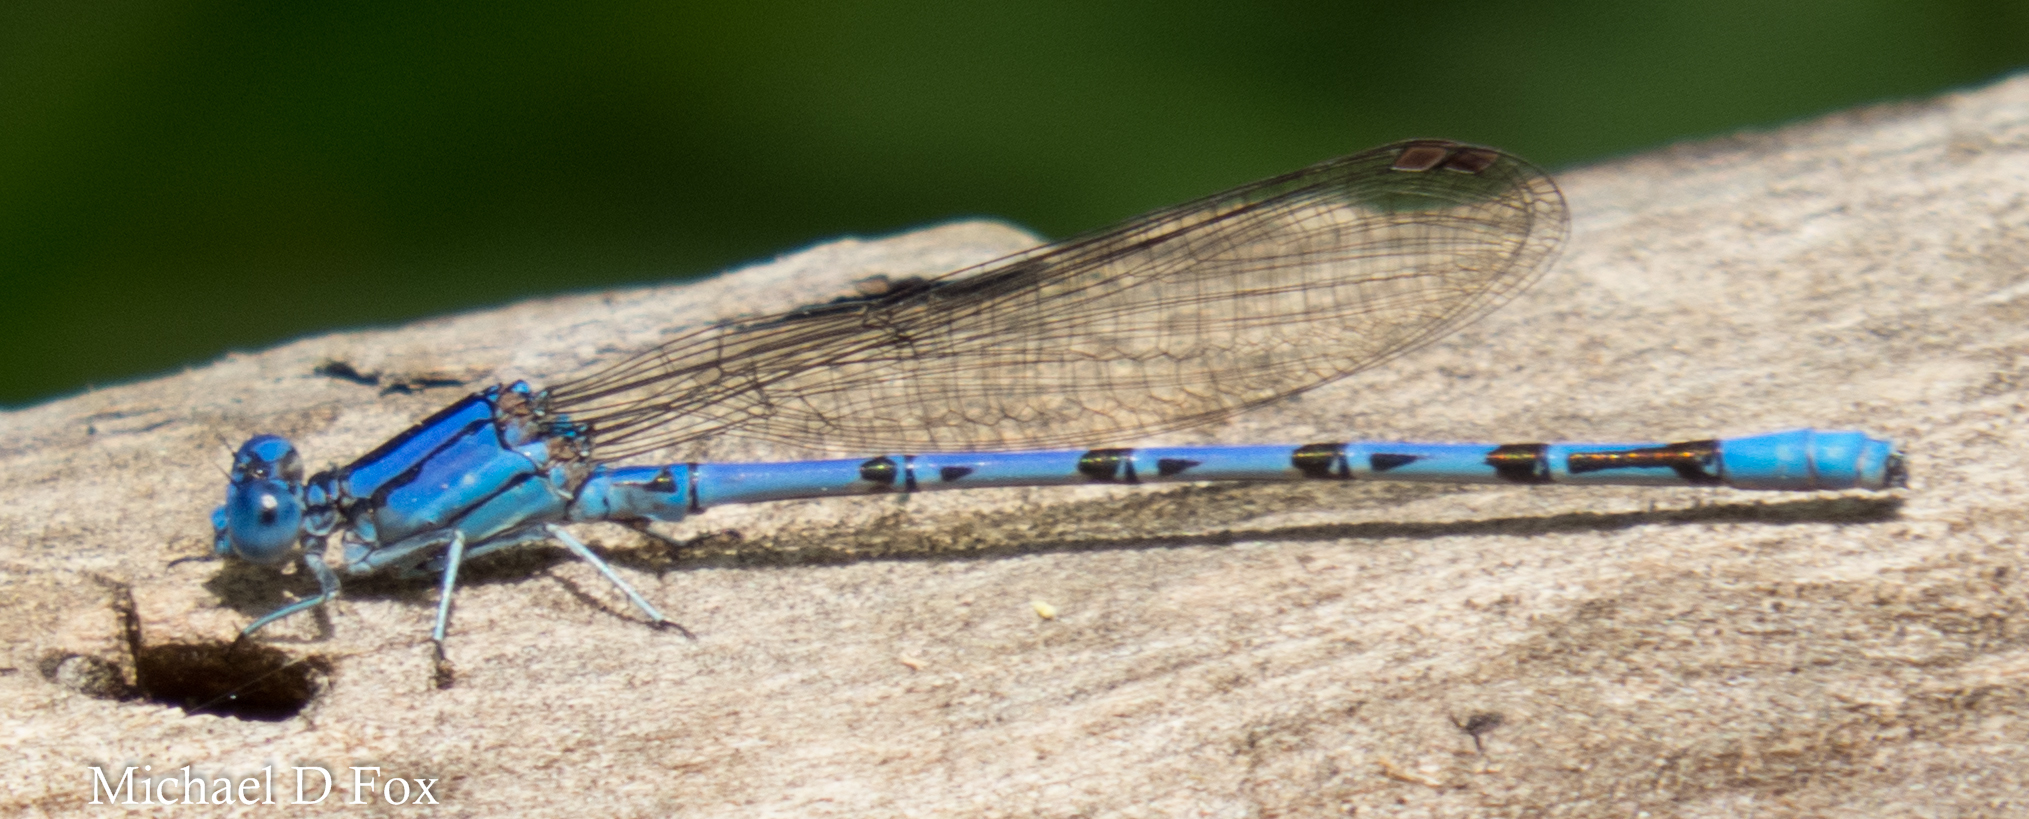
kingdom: Animalia
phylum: Arthropoda
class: Insecta
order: Odonata
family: Coenagrionidae
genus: Argia
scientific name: Argia funebris
